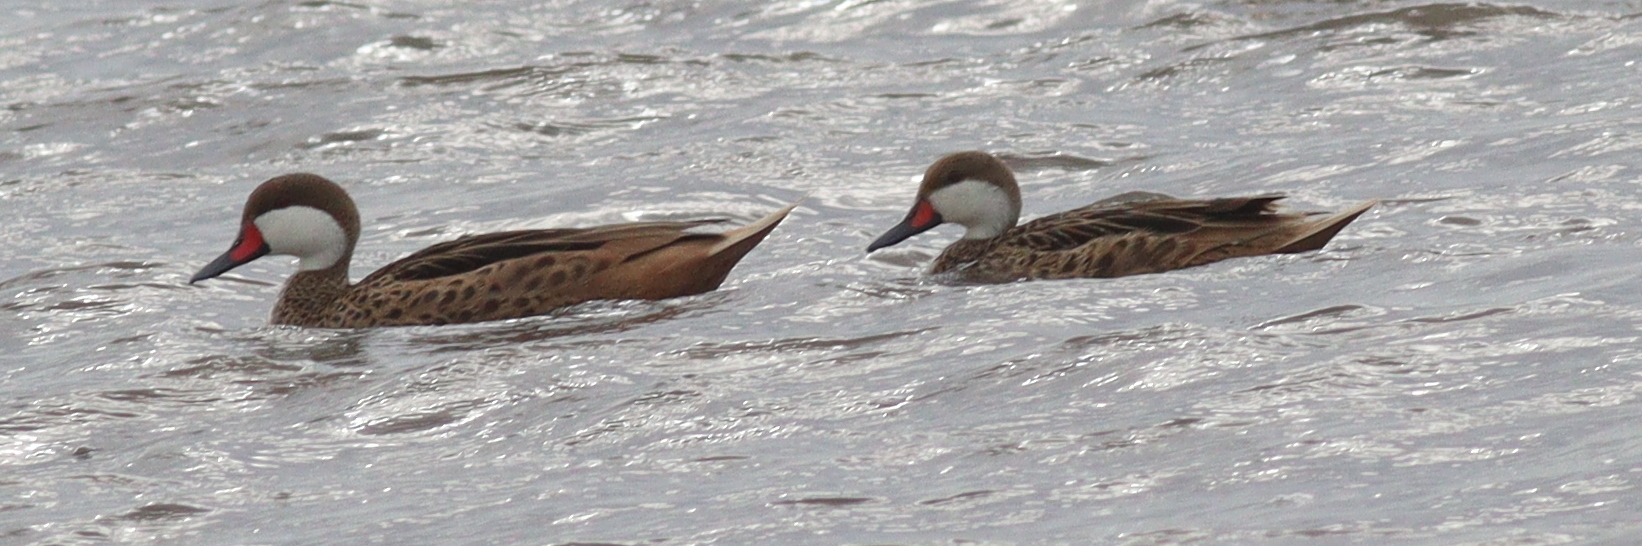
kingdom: Animalia
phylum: Chordata
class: Aves
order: Anseriformes
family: Anatidae
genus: Anas
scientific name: Anas bahamensis
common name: White-cheeked pintail
